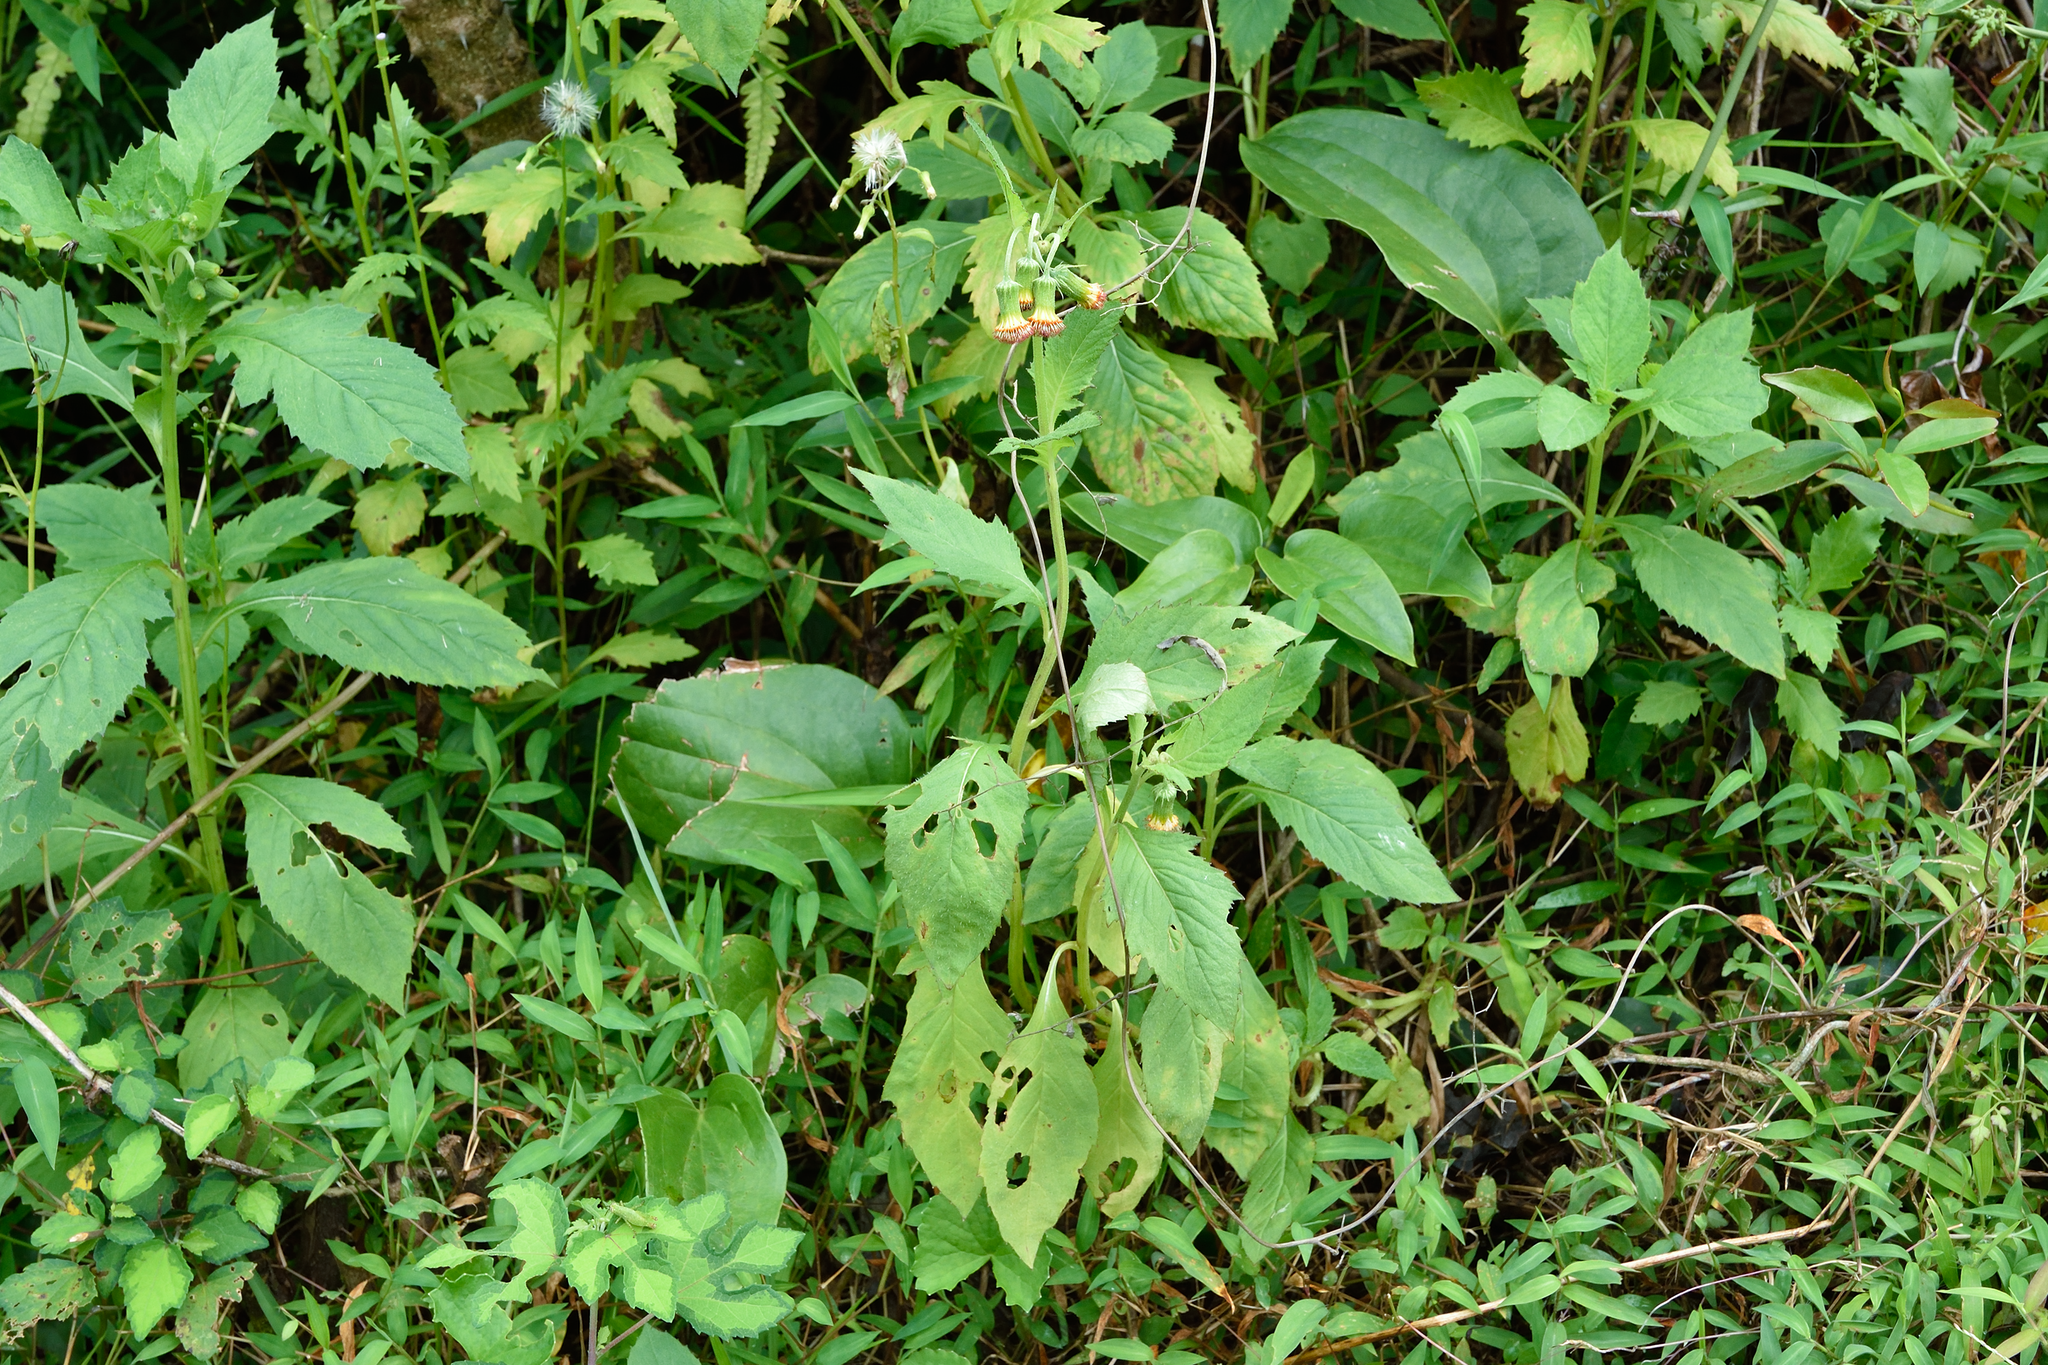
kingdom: Plantae
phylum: Tracheophyta
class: Magnoliopsida
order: Asterales
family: Asteraceae
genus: Crassocephalum
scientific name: Crassocephalum crepidioides
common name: Redflower ragleaf
